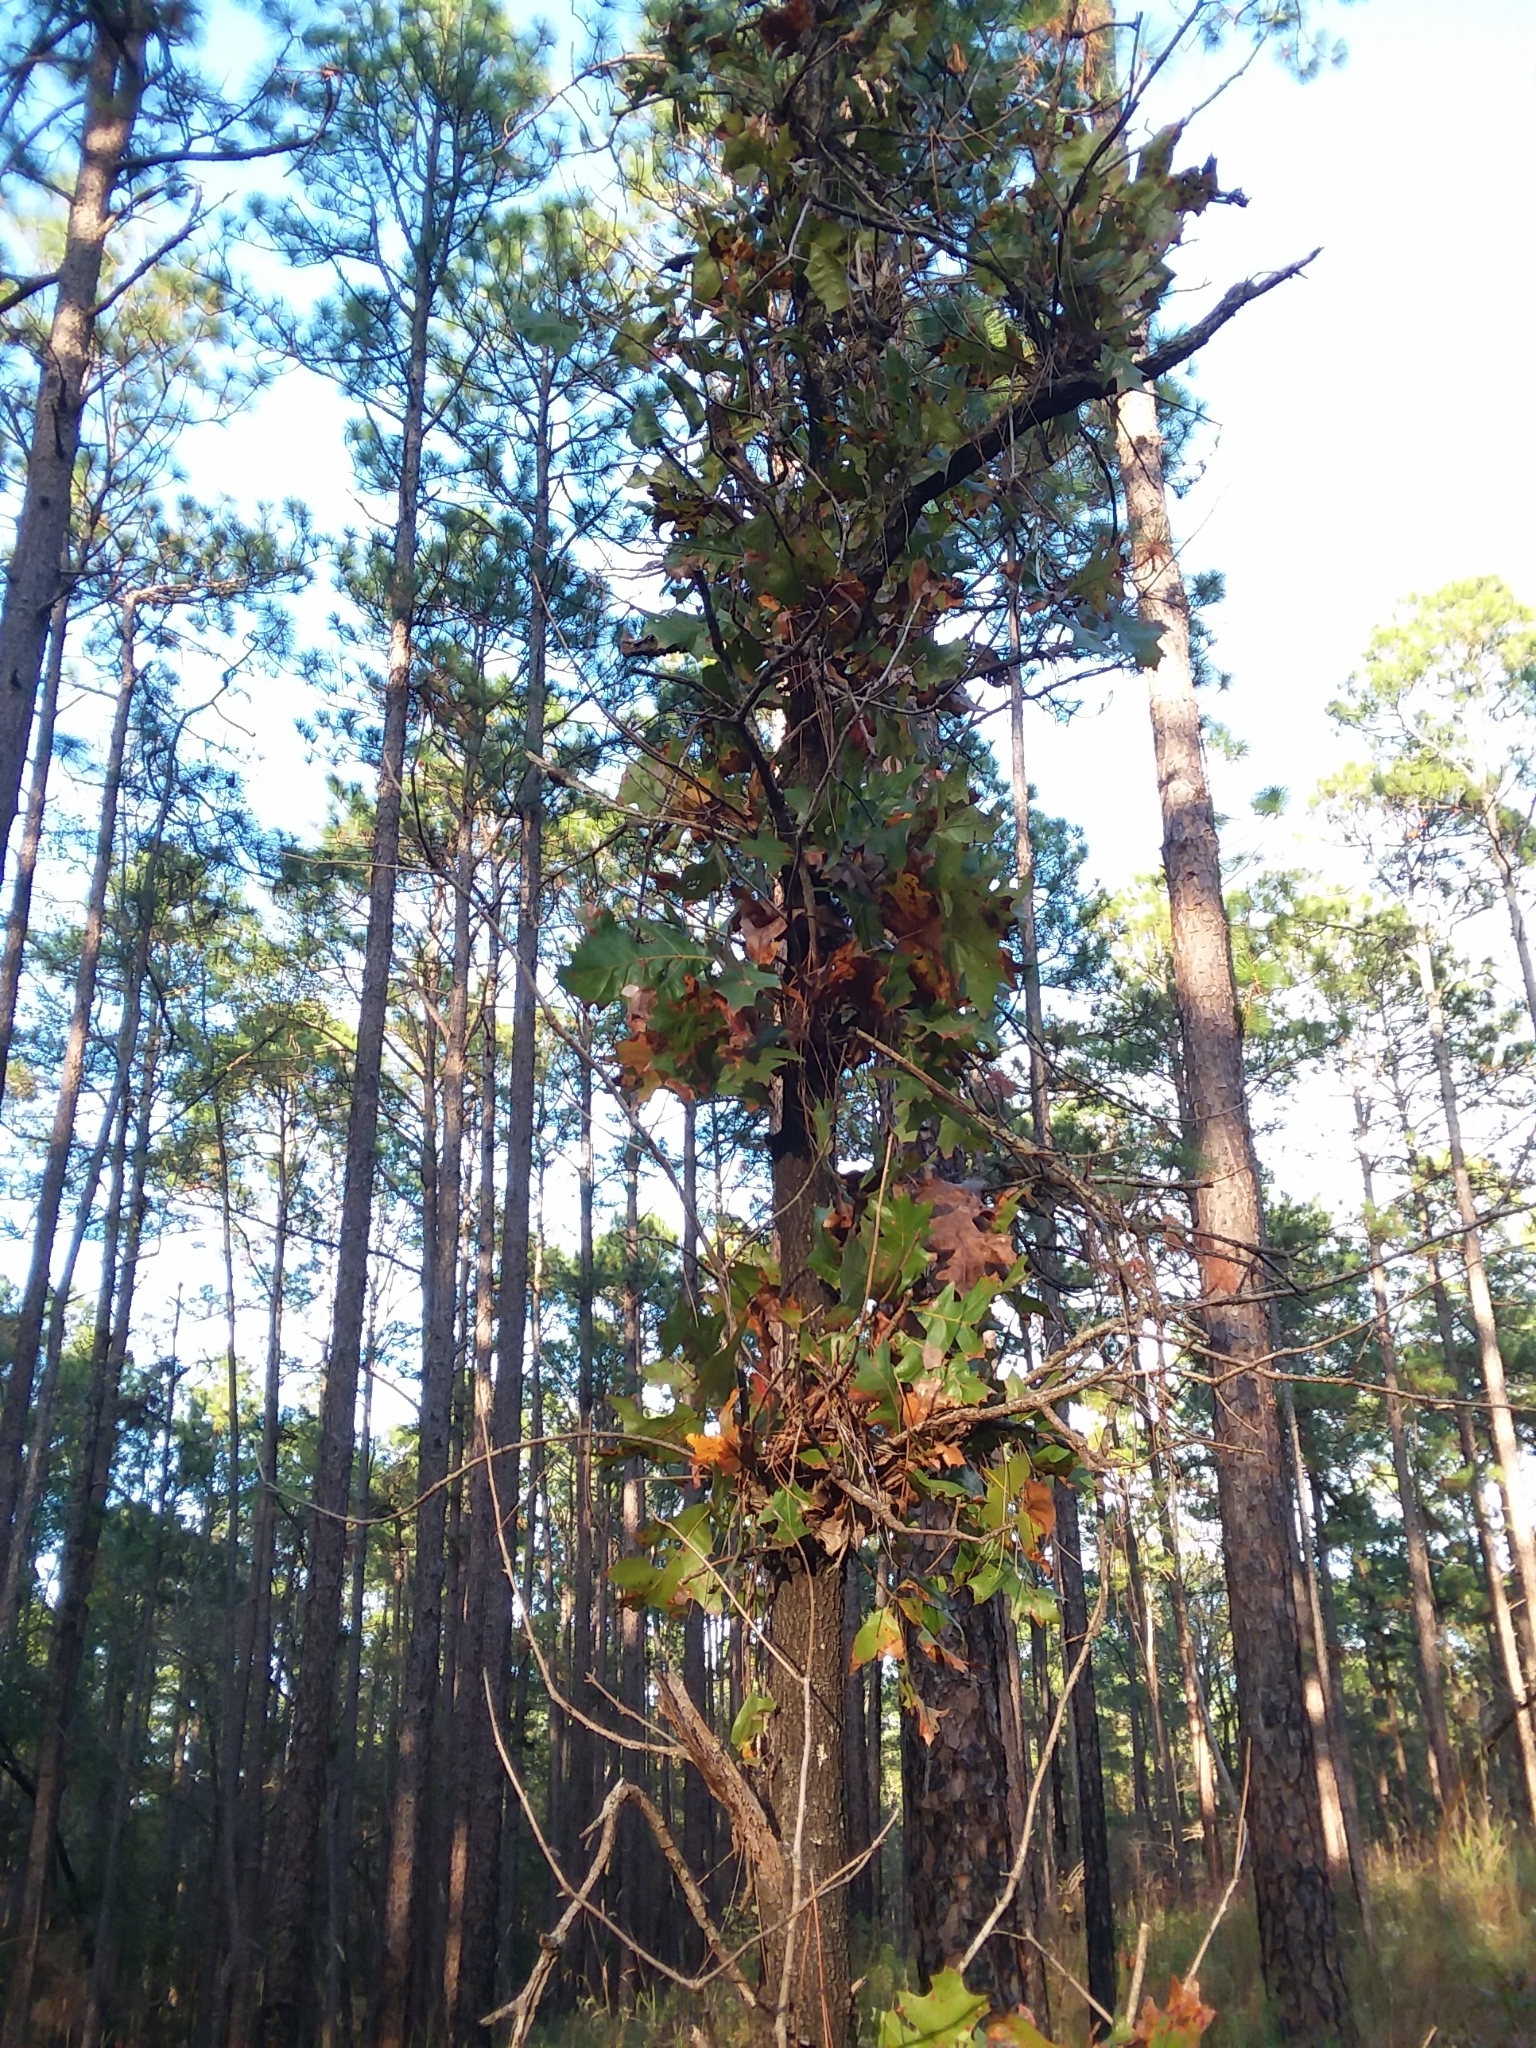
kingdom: Plantae
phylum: Tracheophyta
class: Magnoliopsida
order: Fagales
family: Fagaceae
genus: Quercus
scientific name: Quercus laevis
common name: Turkey oak
